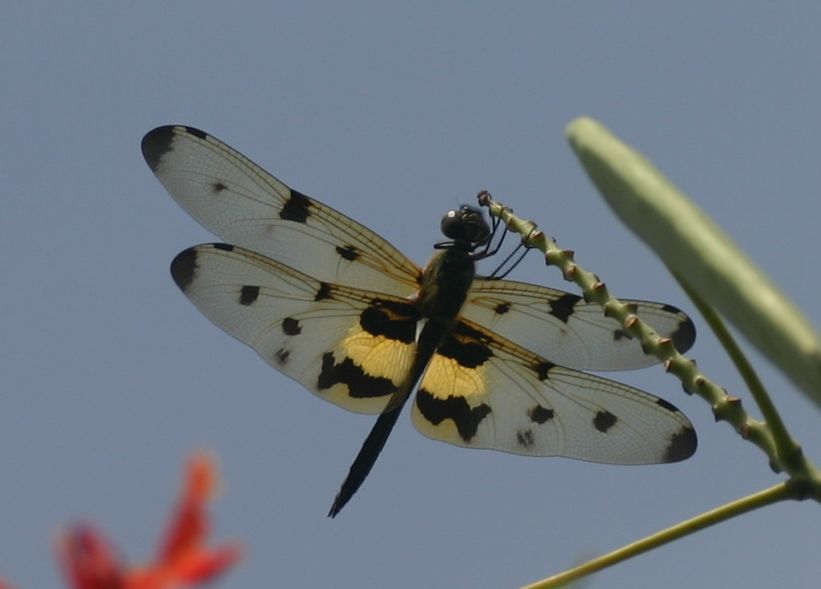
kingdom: Animalia
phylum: Arthropoda
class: Insecta
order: Odonata
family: Libellulidae
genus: Rhyothemis
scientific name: Rhyothemis variegata
